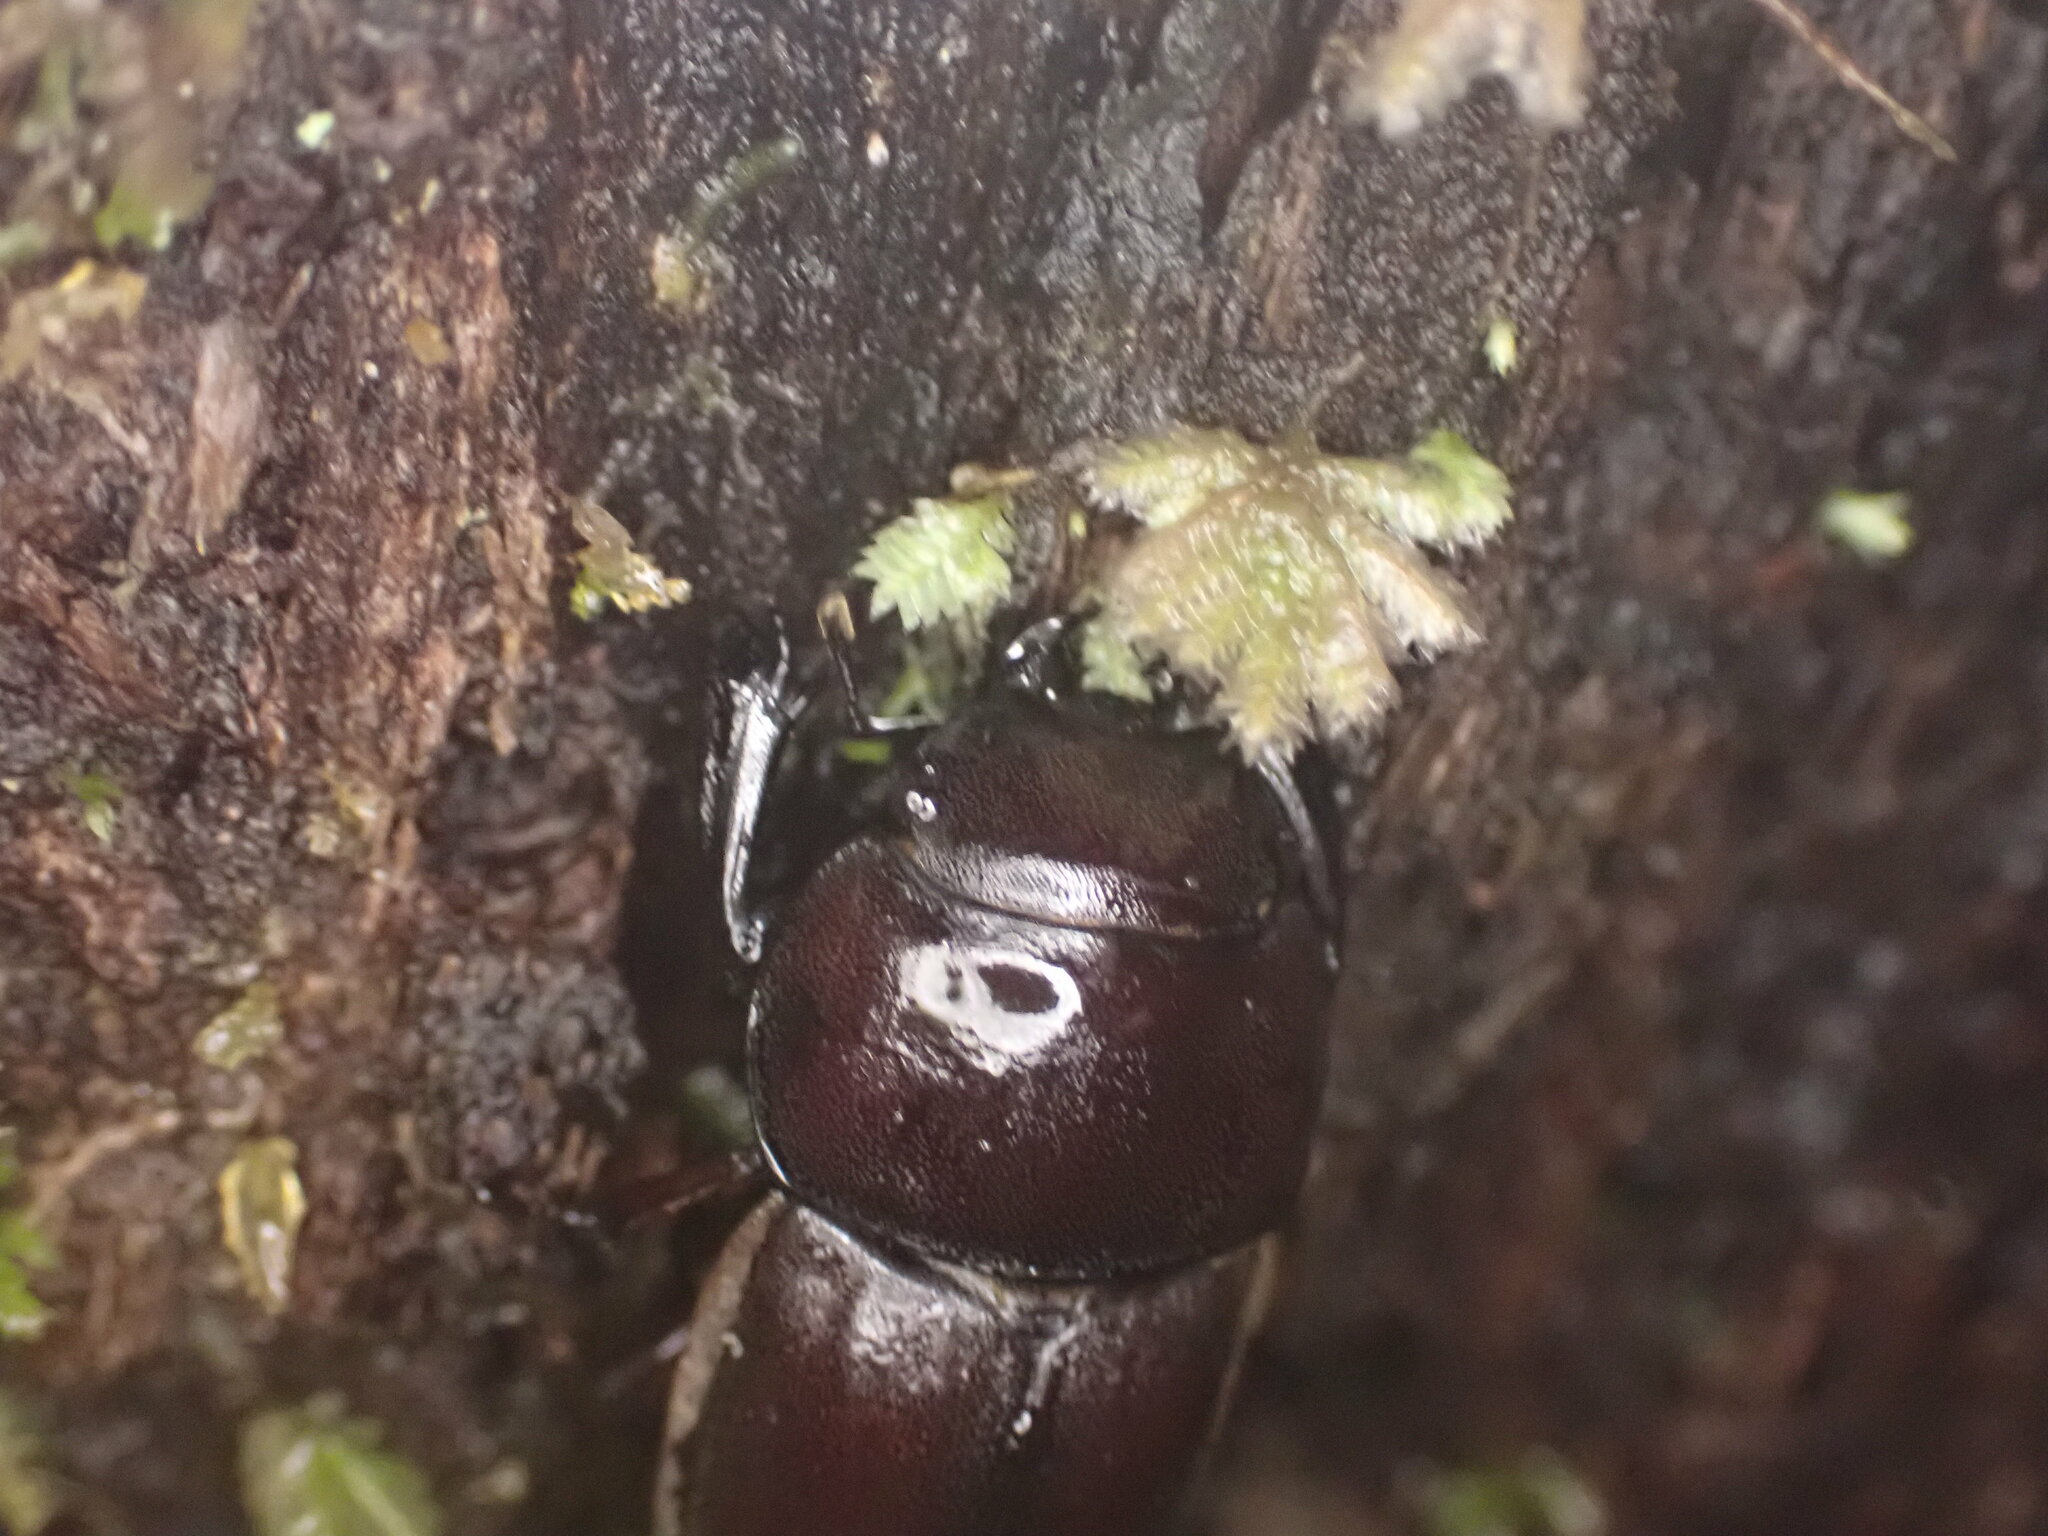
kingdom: Animalia
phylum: Arthropoda
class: Insecta
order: Coleoptera
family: Lucanidae
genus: Geodorcus
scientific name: Geodorcus helmsi
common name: Helm's stag beetle
